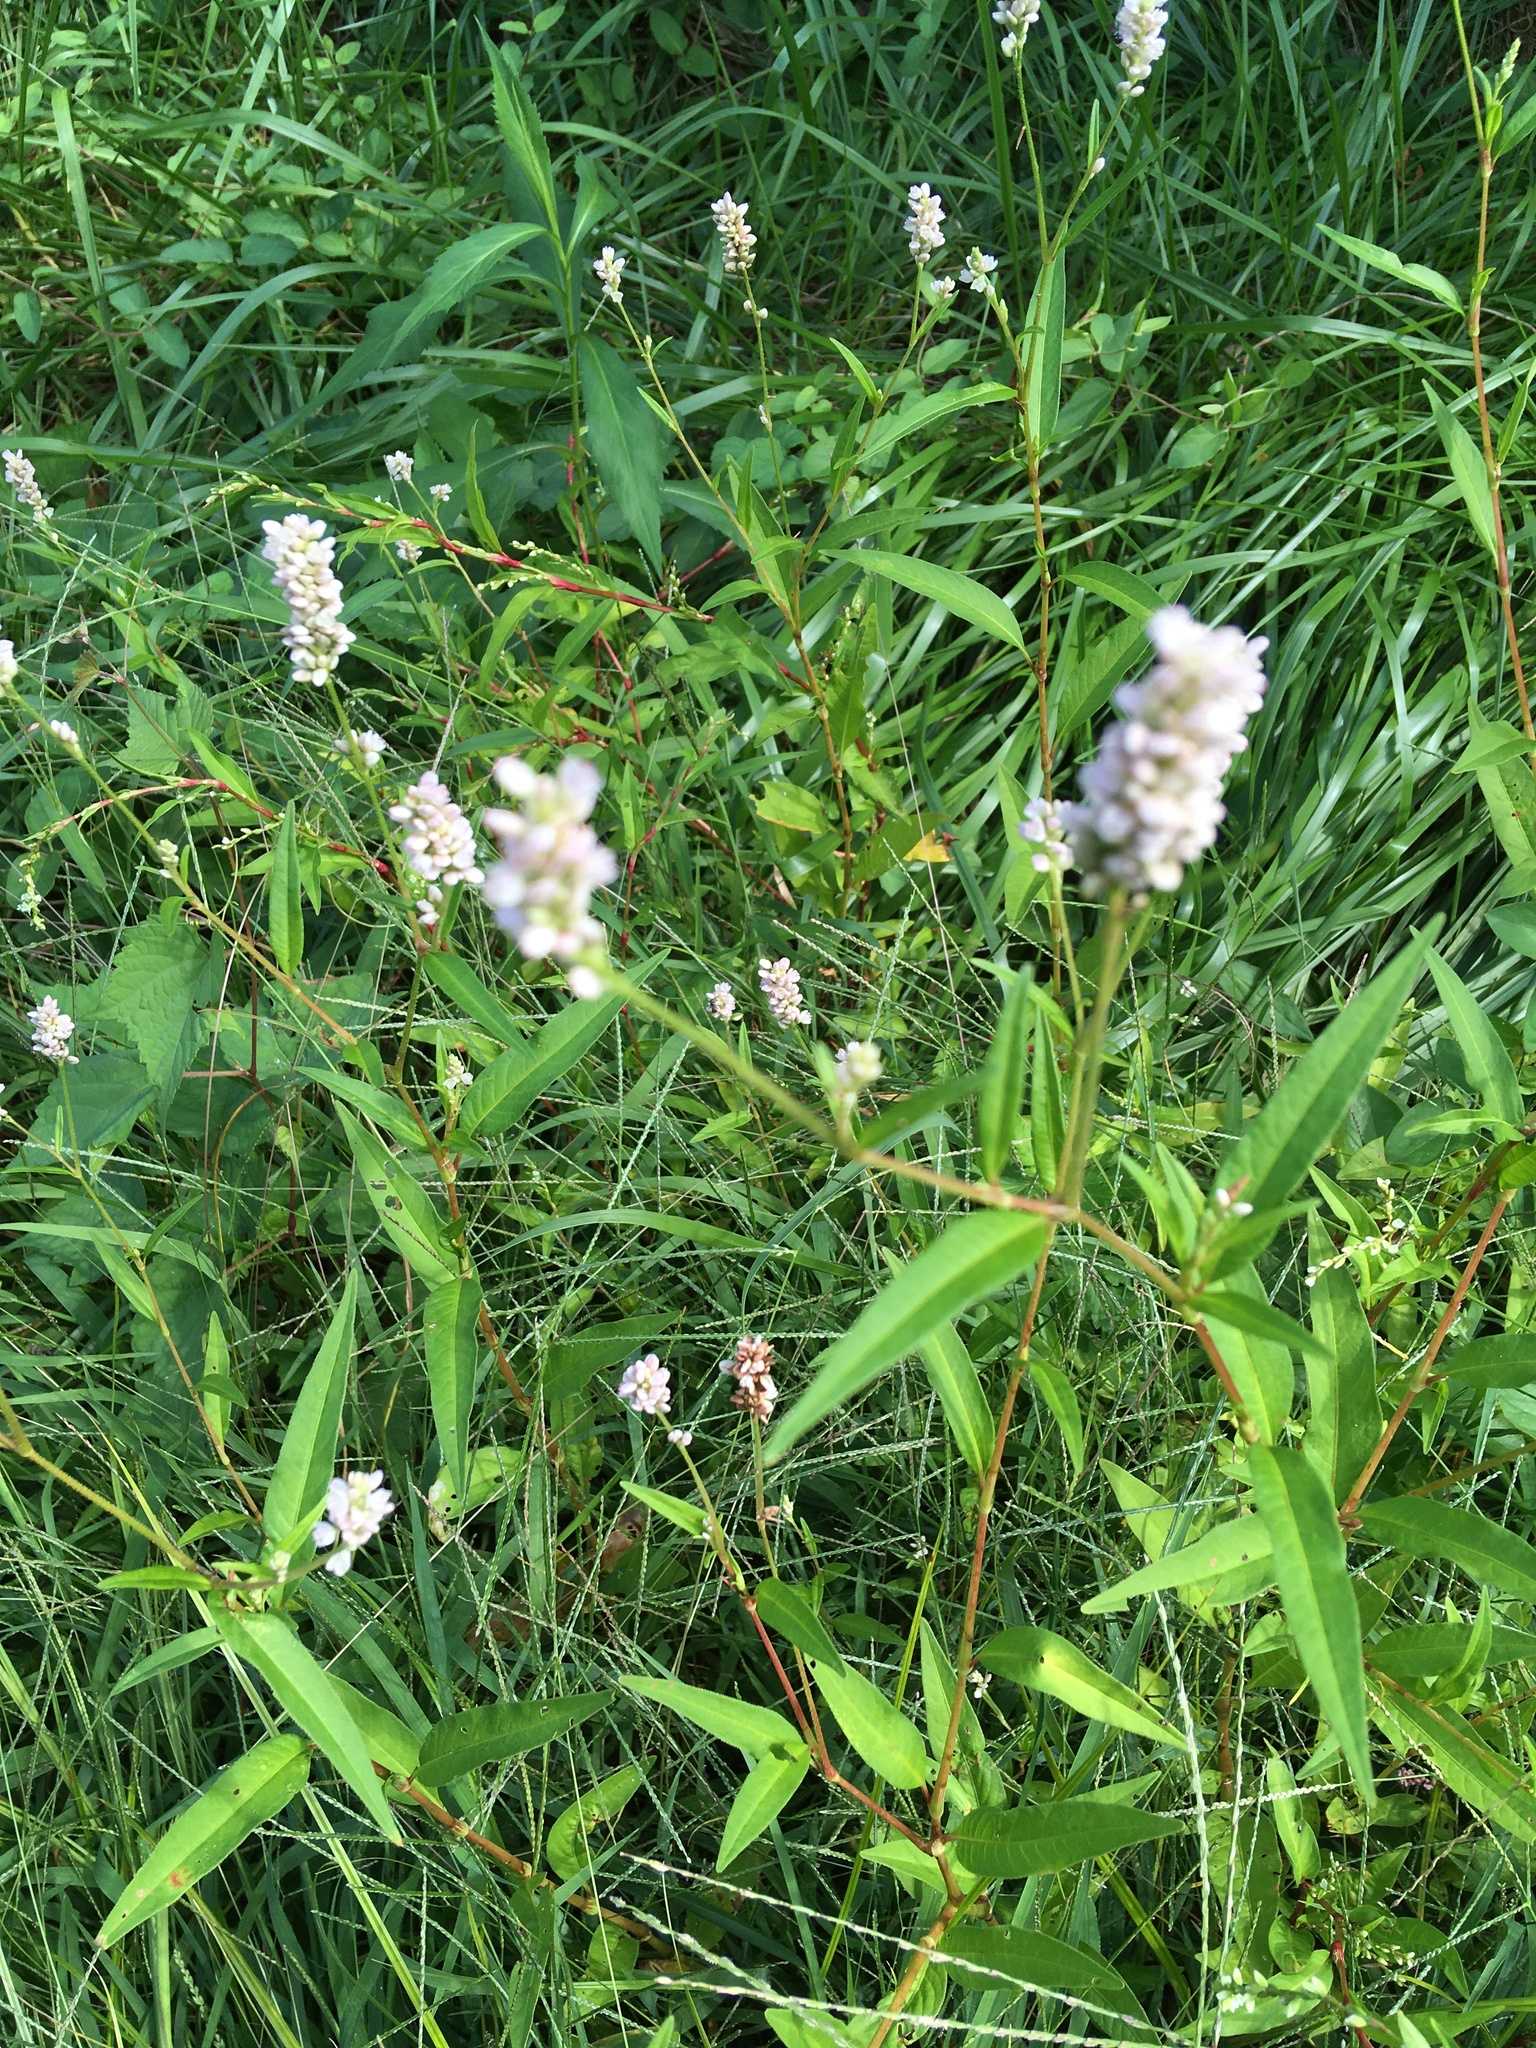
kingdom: Plantae
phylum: Tracheophyta
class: Magnoliopsida
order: Caryophyllales
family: Polygonaceae
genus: Persicaria
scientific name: Persicaria pensylvanica
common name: Pinkweed
